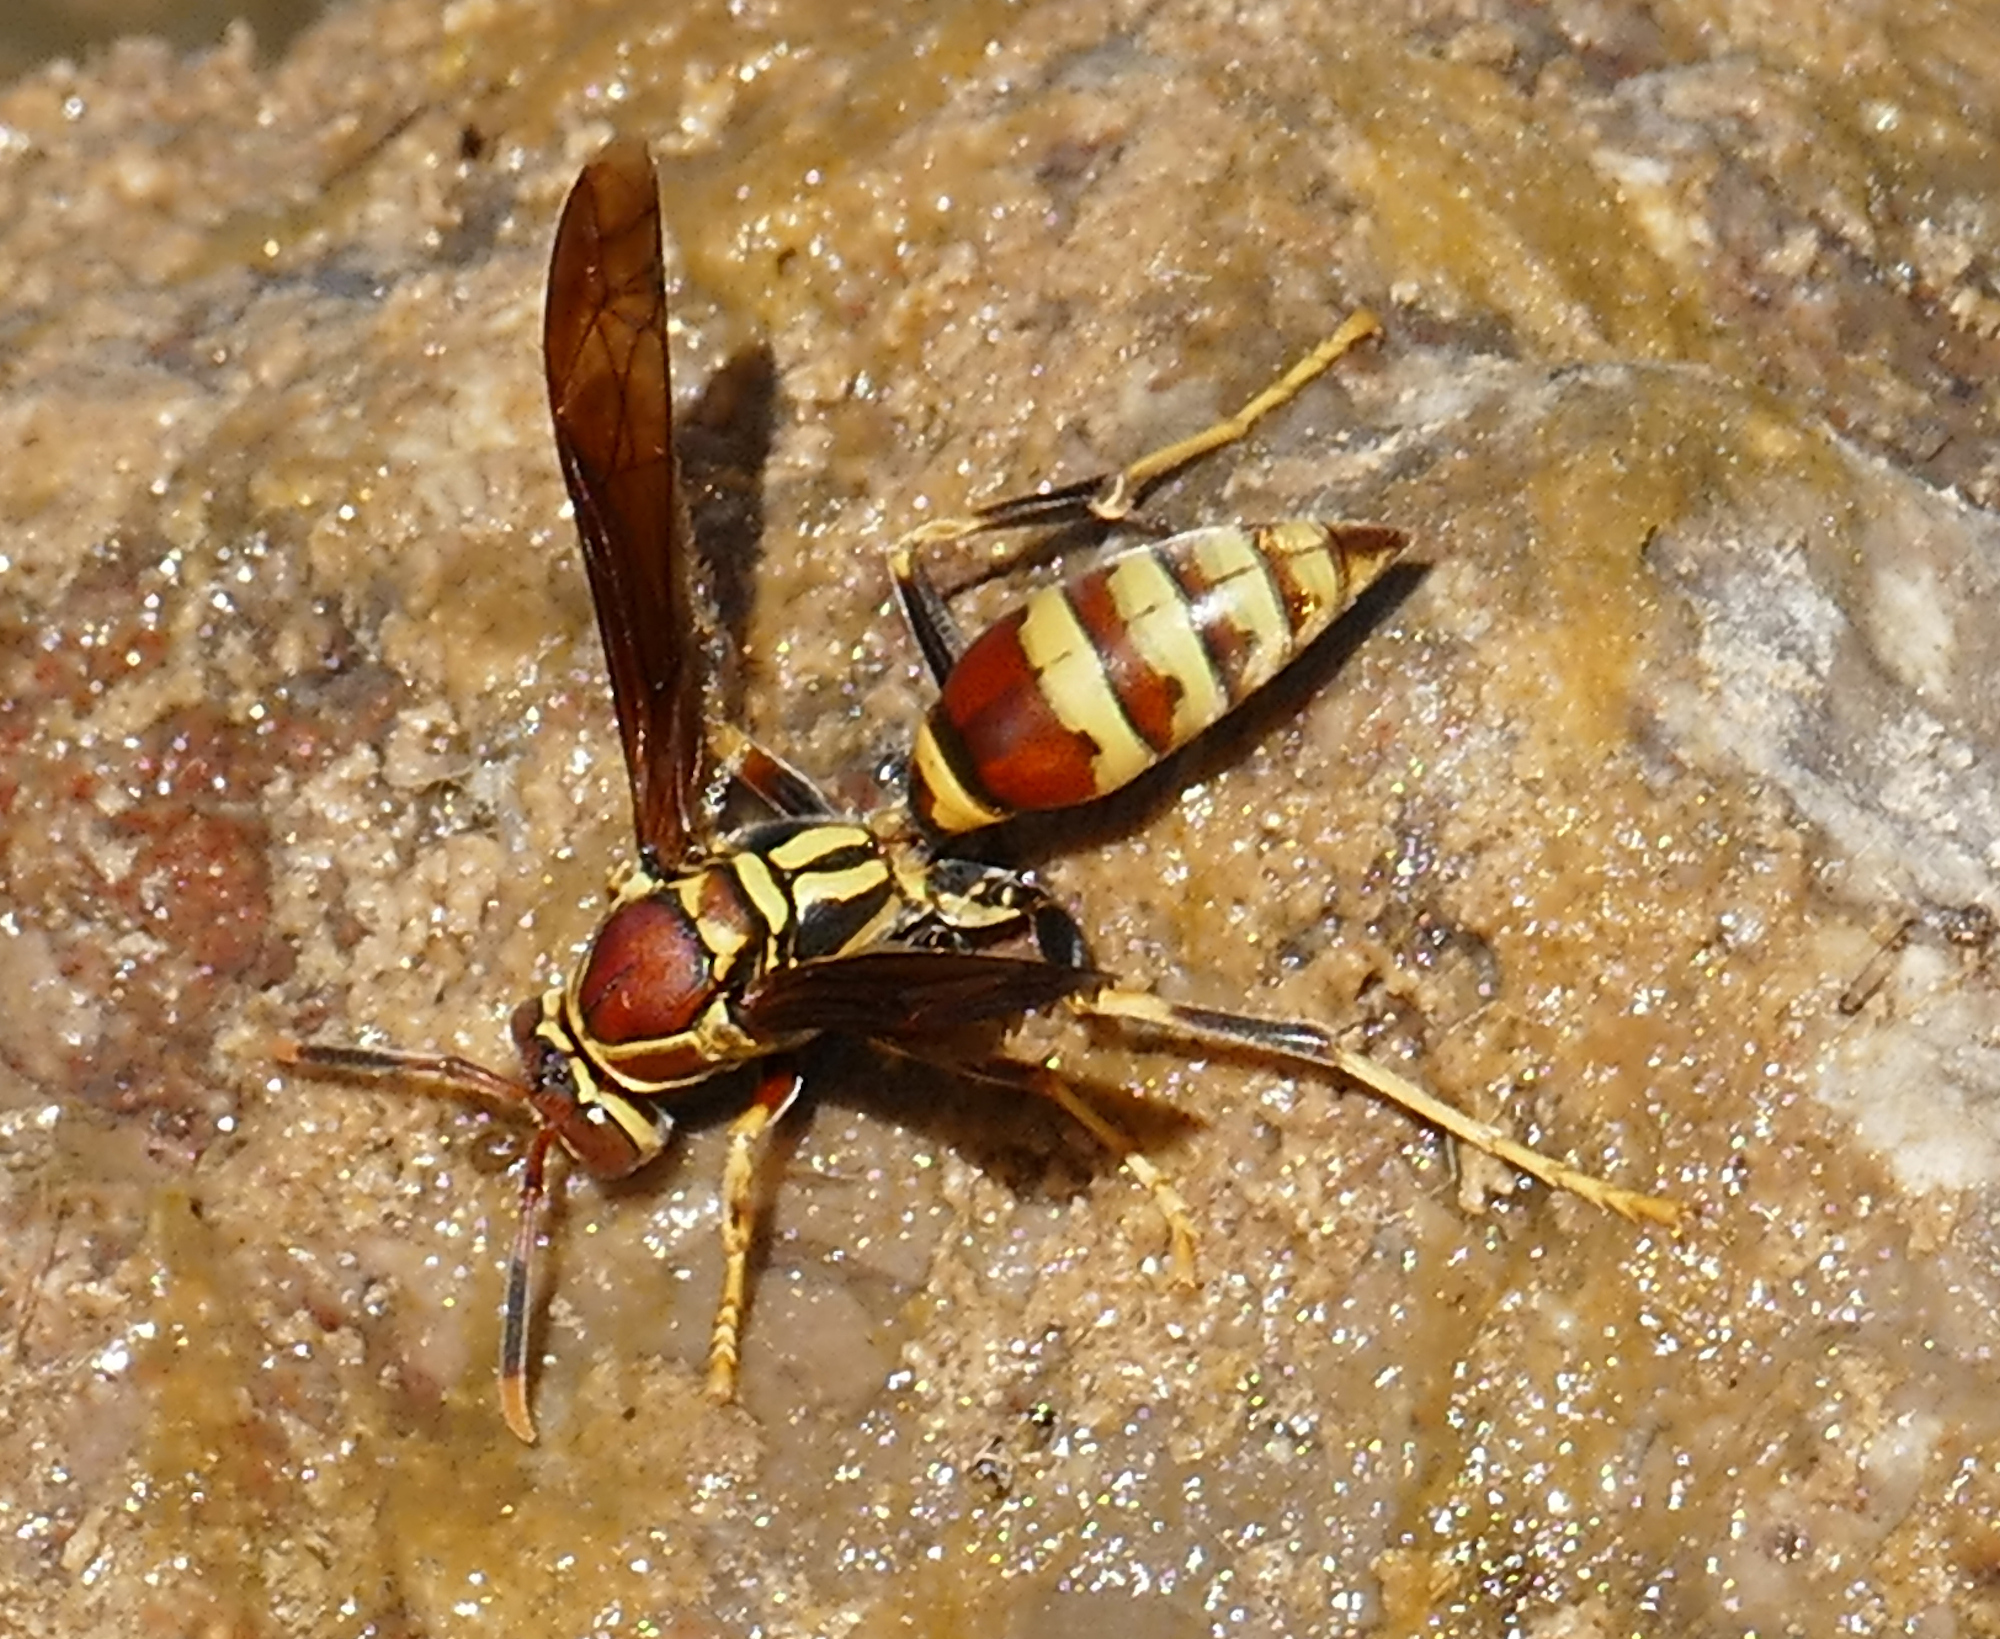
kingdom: Animalia
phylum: Arthropoda
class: Insecta
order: Hymenoptera
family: Eumenidae
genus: Polistes
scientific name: Polistes exclamans
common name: Paper wasp
